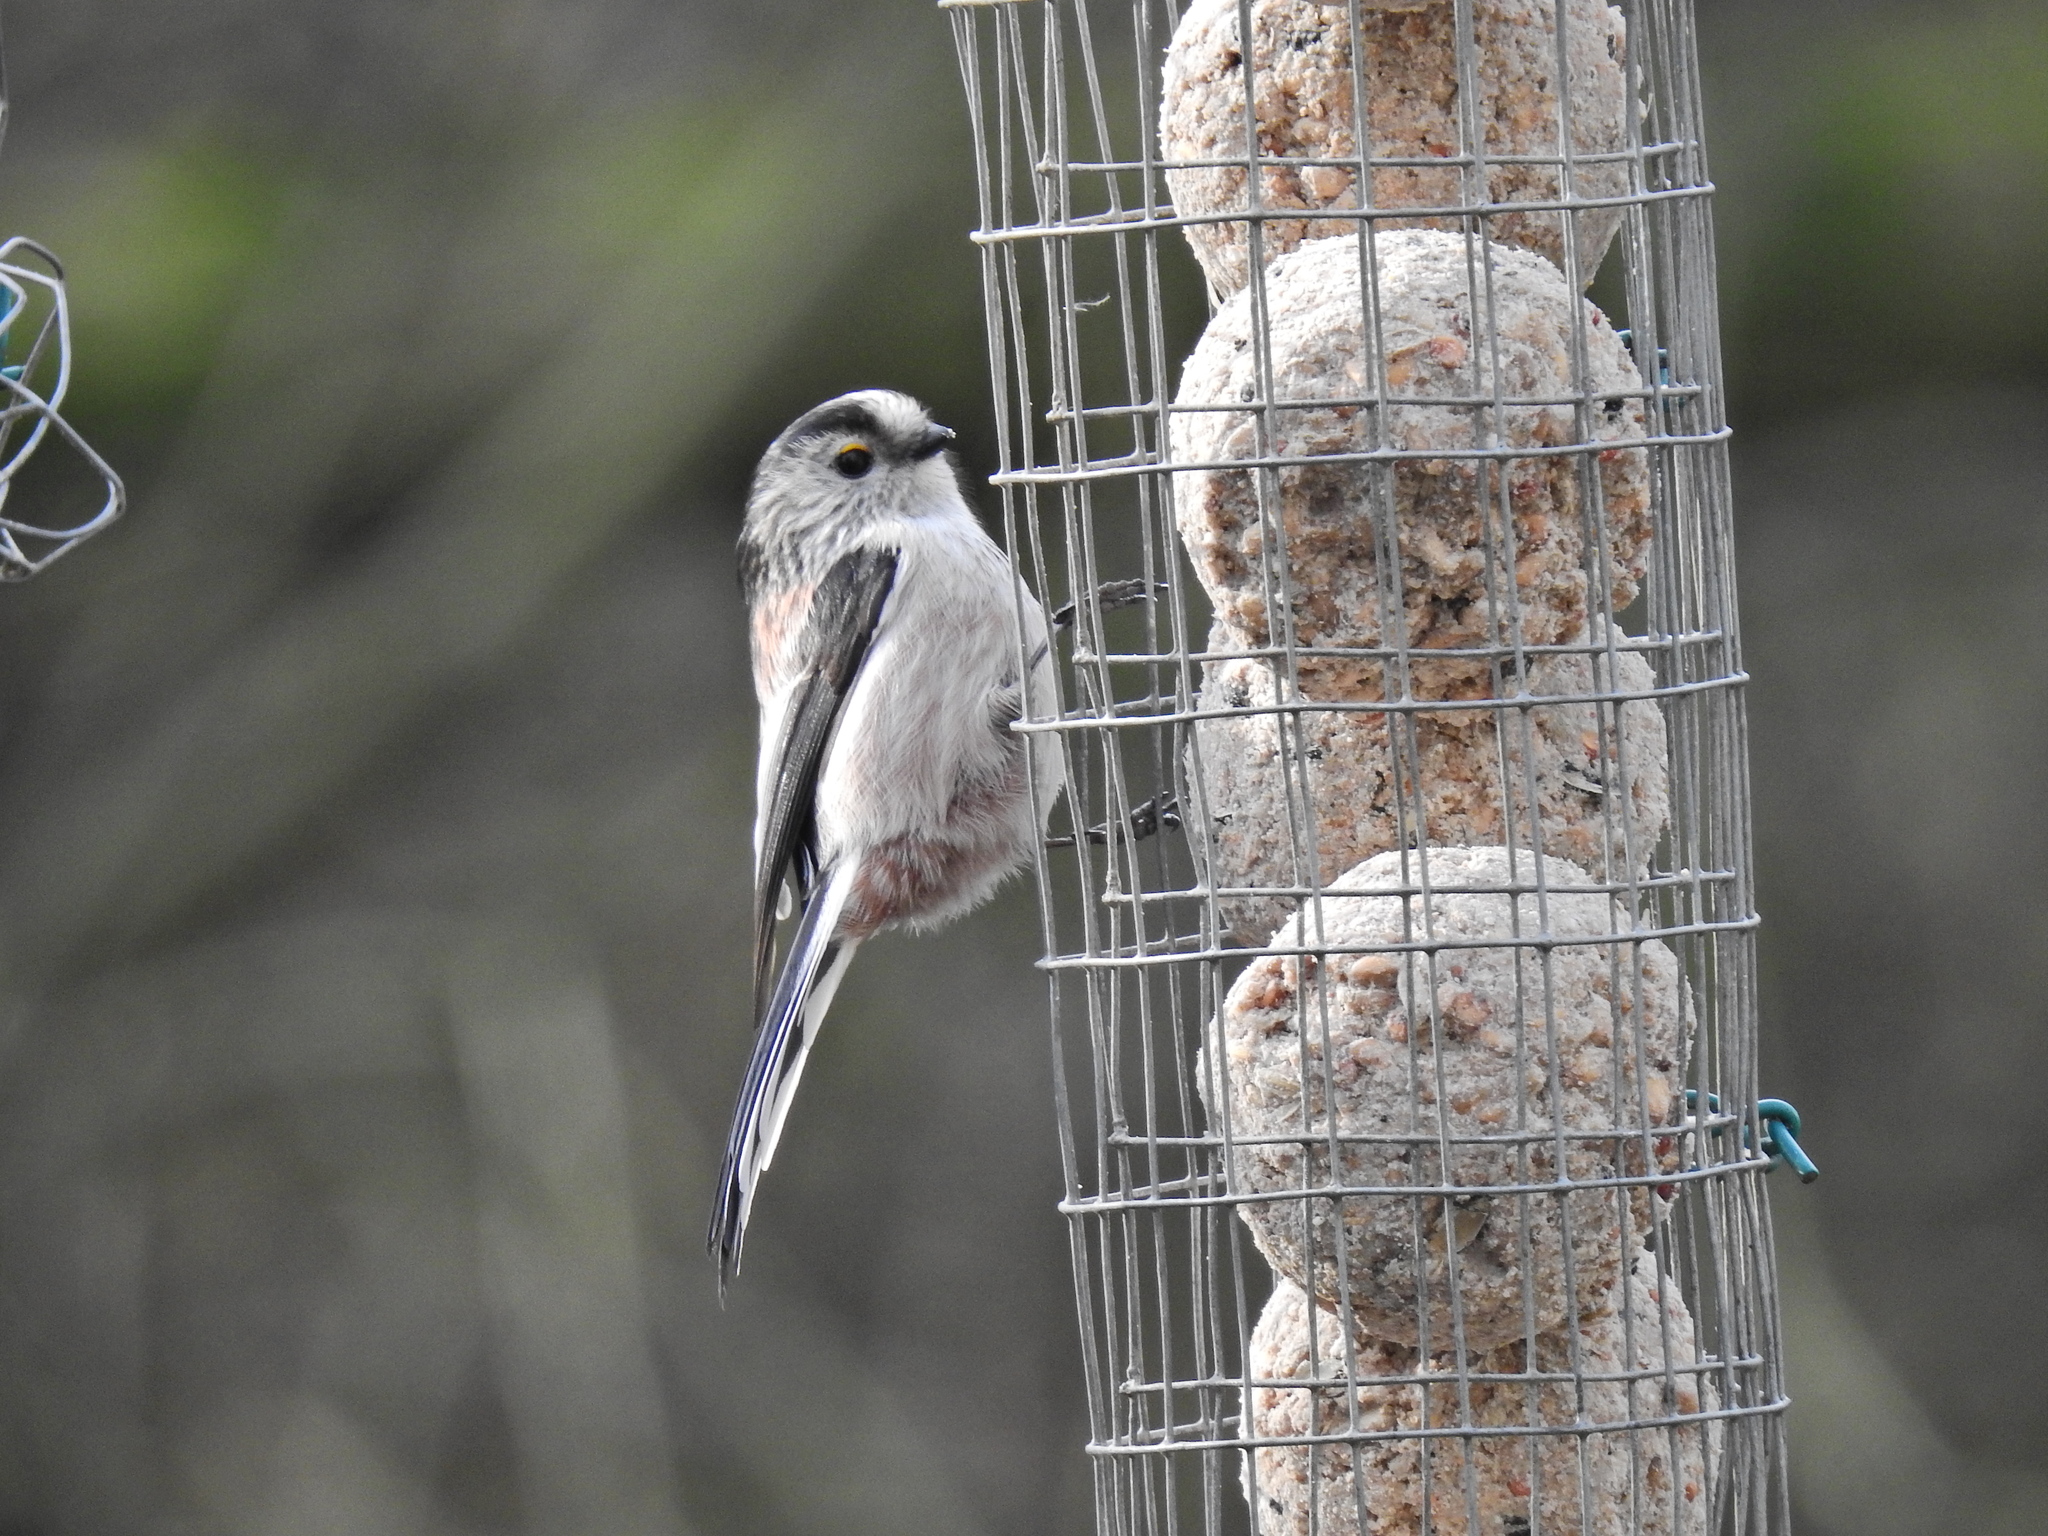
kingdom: Animalia
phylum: Chordata
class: Aves
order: Passeriformes
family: Aegithalidae
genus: Aegithalos
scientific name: Aegithalos caudatus
